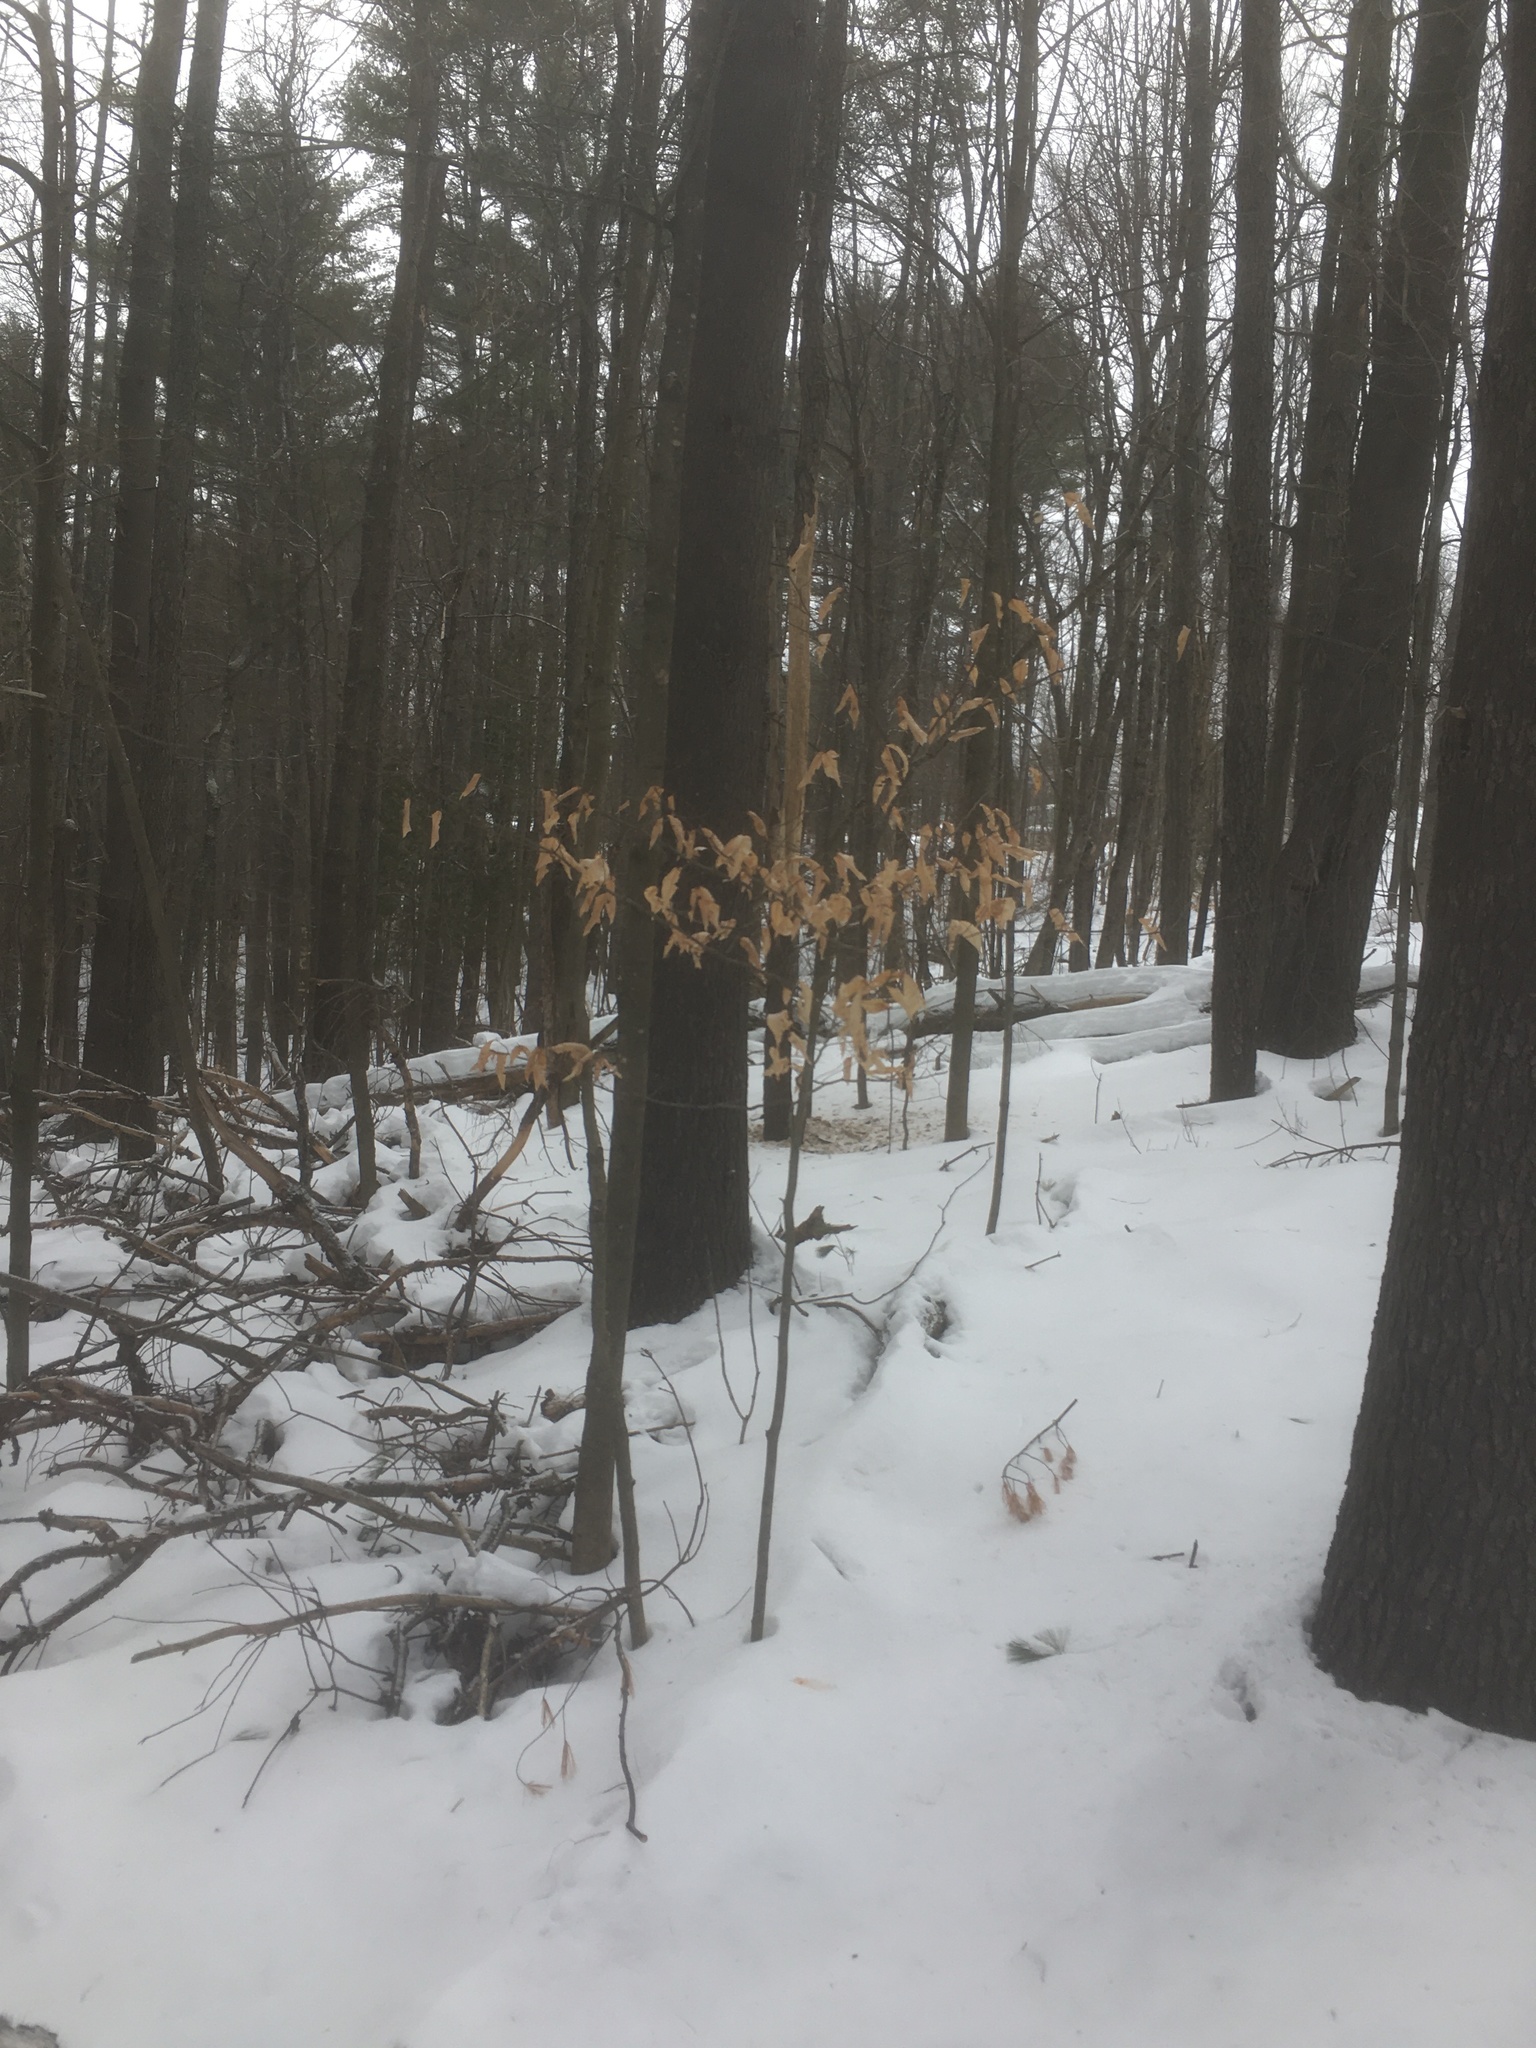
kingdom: Plantae
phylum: Tracheophyta
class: Magnoliopsida
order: Fagales
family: Fagaceae
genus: Fagus
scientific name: Fagus grandifolia
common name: American beech
